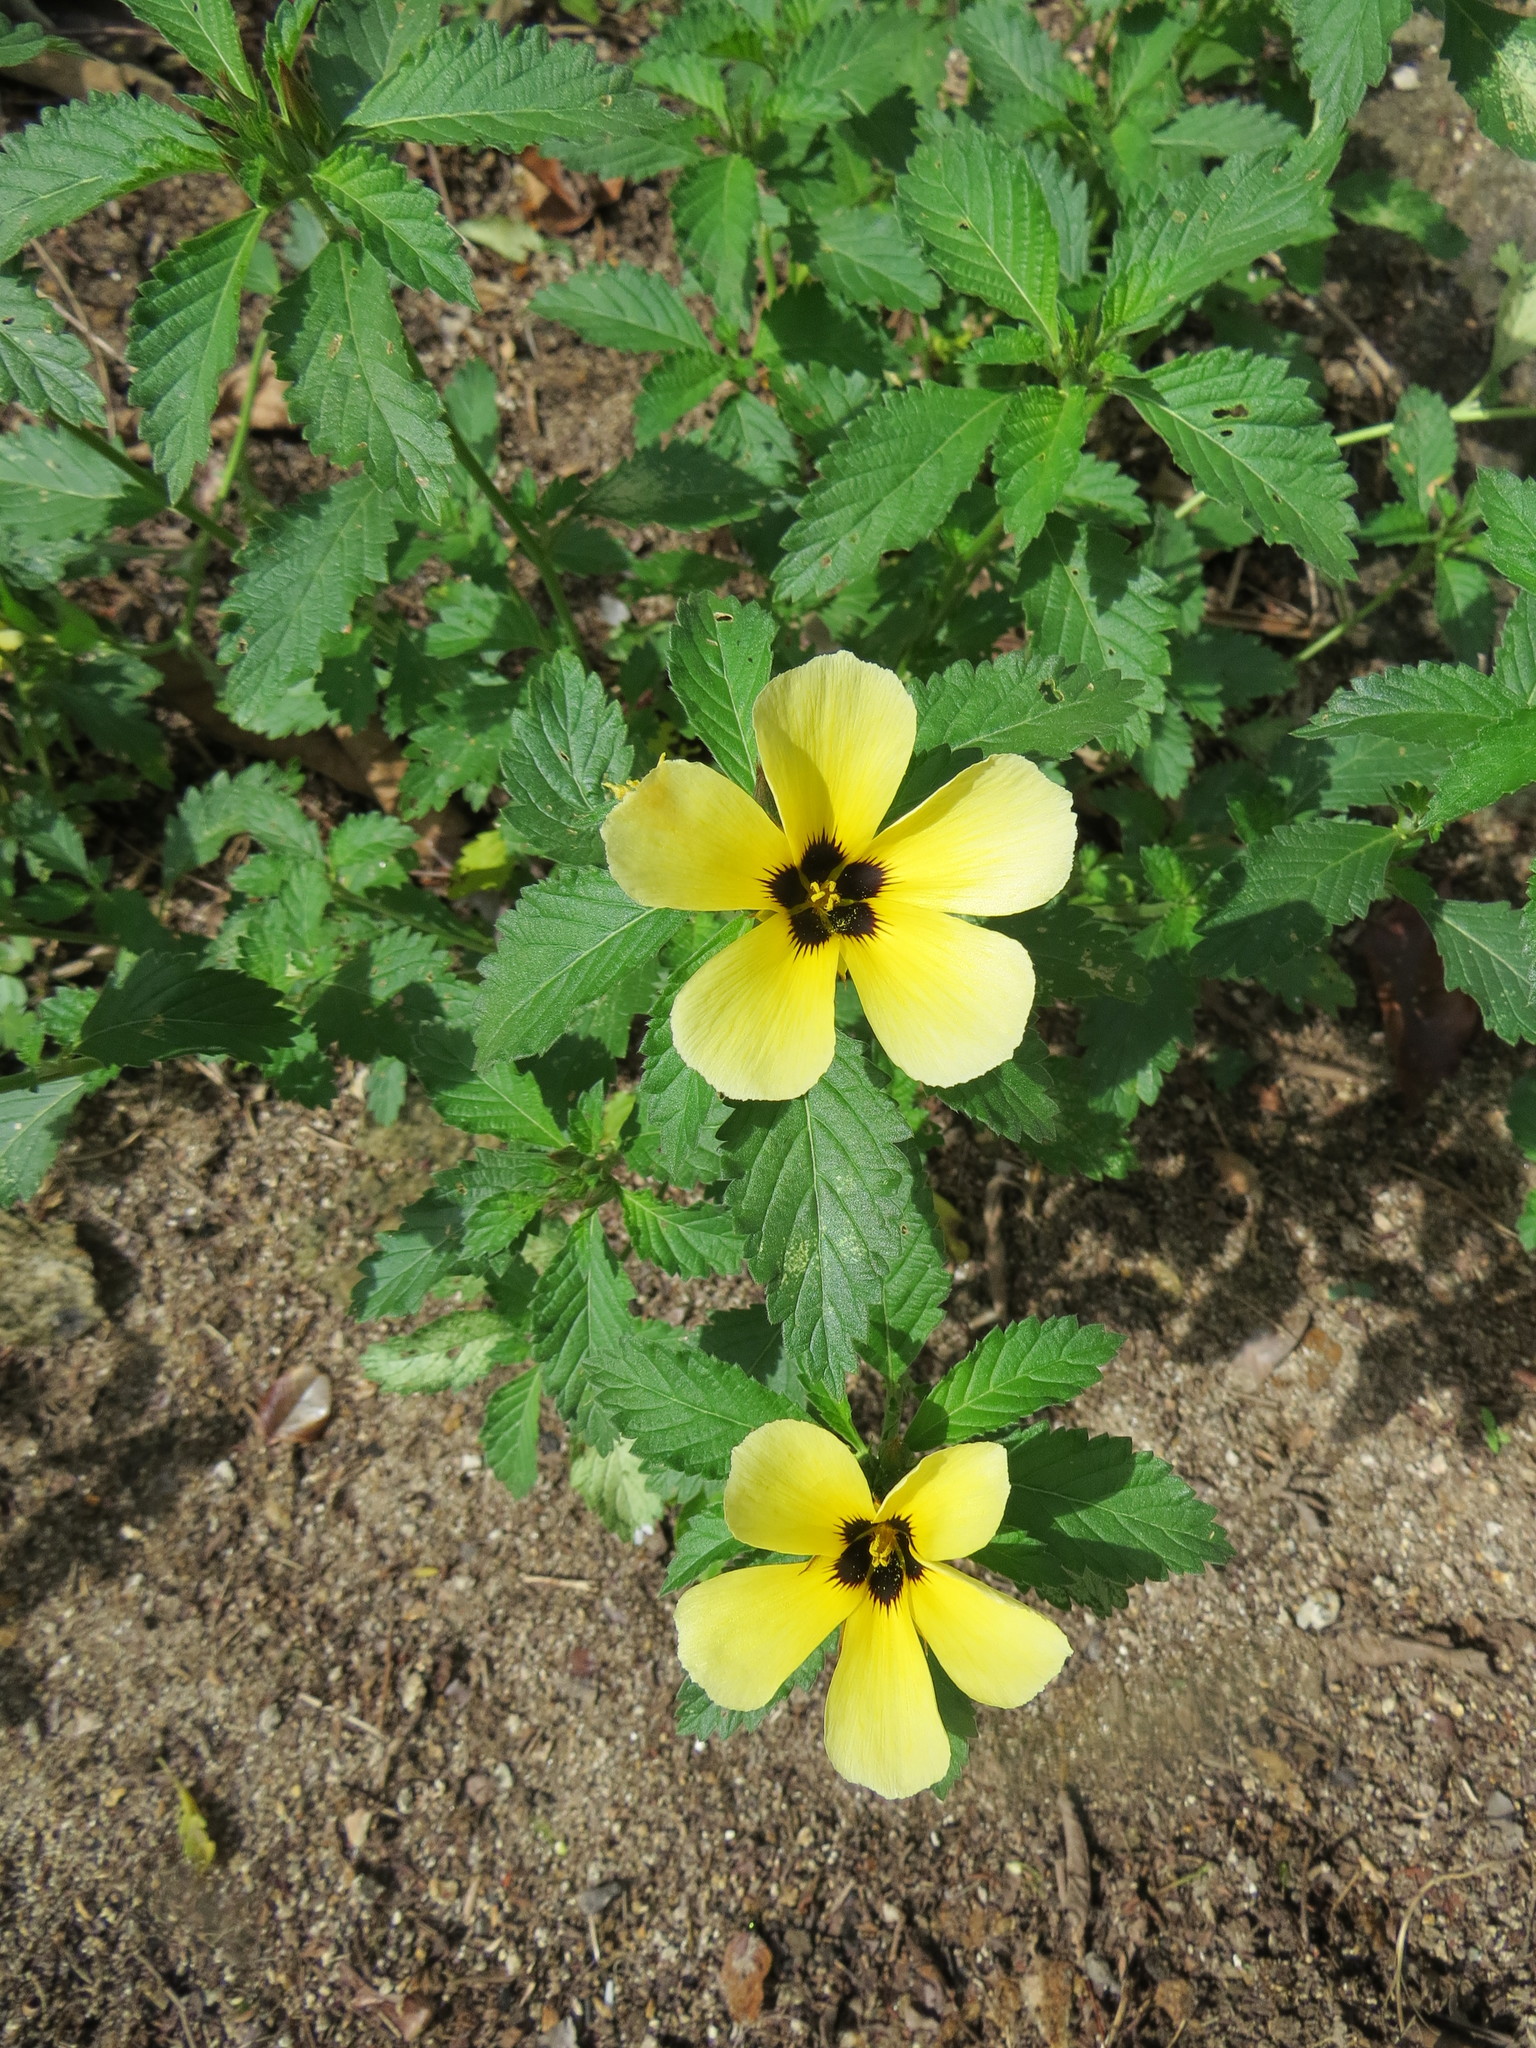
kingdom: Plantae
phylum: Tracheophyta
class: Magnoliopsida
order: Malpighiales
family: Turneraceae
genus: Turnera
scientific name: Turnera subulata
